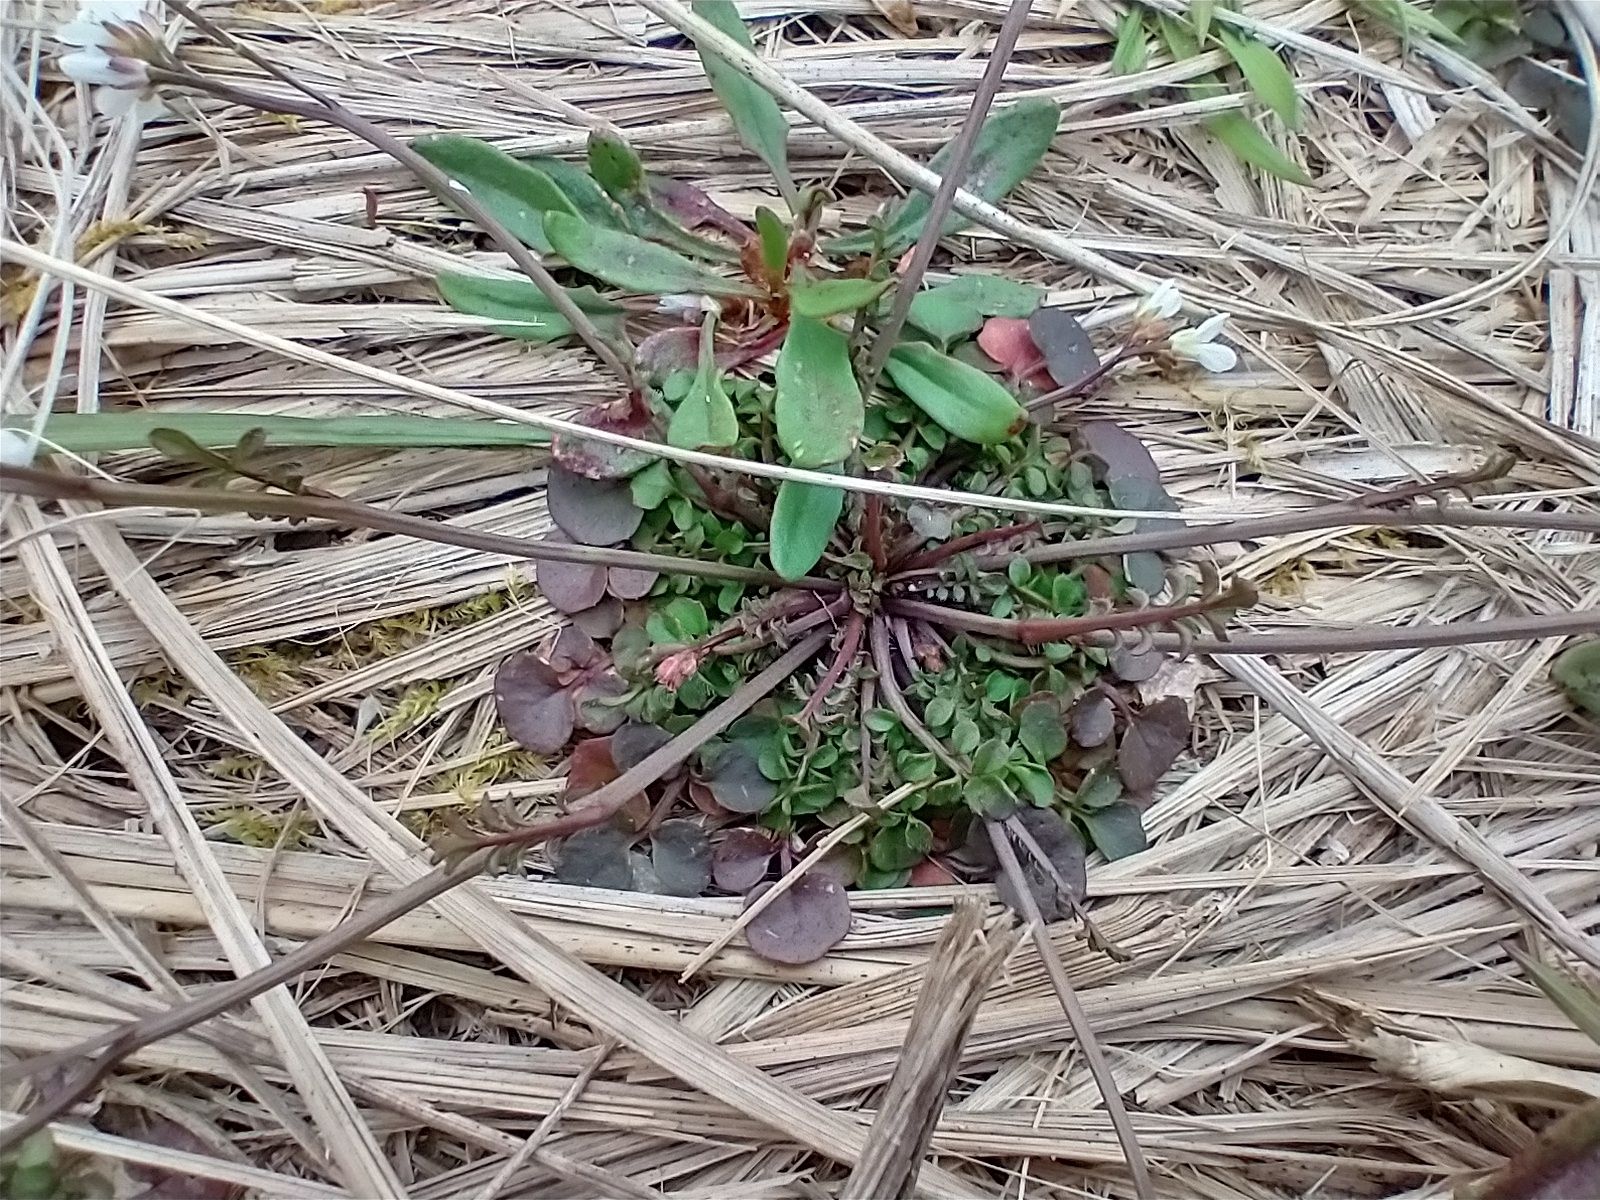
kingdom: Plantae
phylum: Tracheophyta
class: Magnoliopsida
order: Brassicales
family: Brassicaceae
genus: Cardamine
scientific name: Cardamine hirsuta
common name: Hairy bittercress
